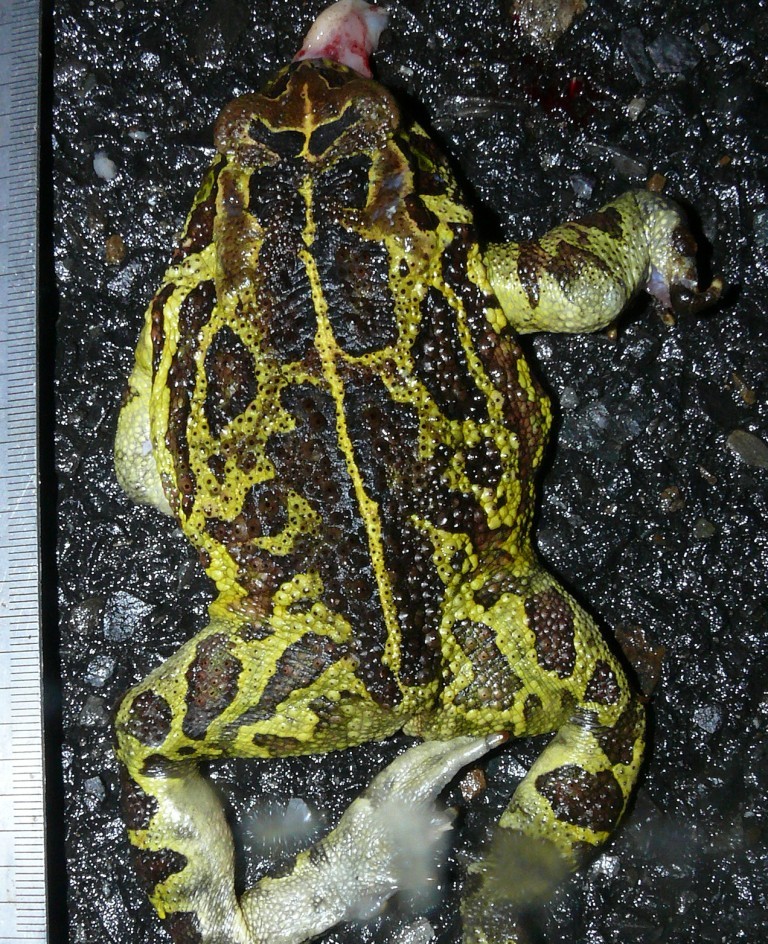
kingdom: Animalia
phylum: Chordata
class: Amphibia
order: Anura
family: Bufonidae
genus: Sclerophrys
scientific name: Sclerophrys pantherina
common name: Panther toad
